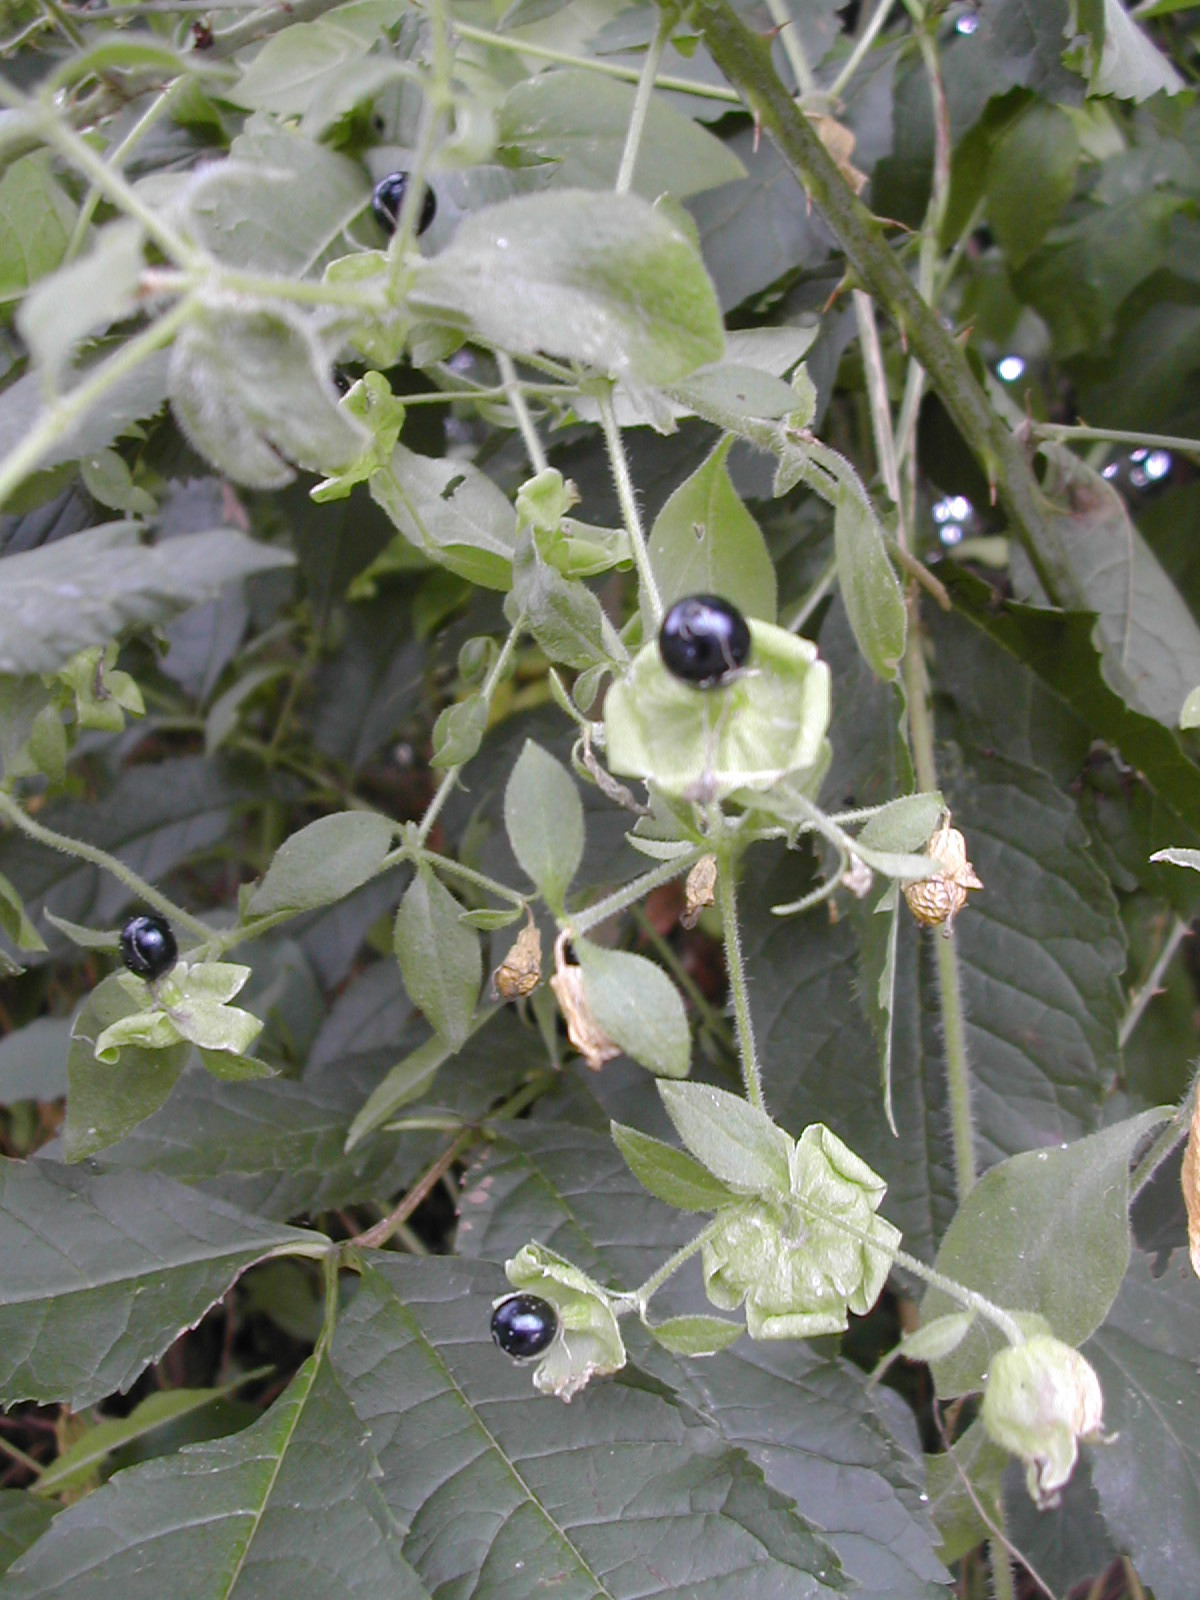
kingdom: Plantae
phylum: Tracheophyta
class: Magnoliopsida
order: Caryophyllales
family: Caryophyllaceae
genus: Silene
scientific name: Silene baccifera
